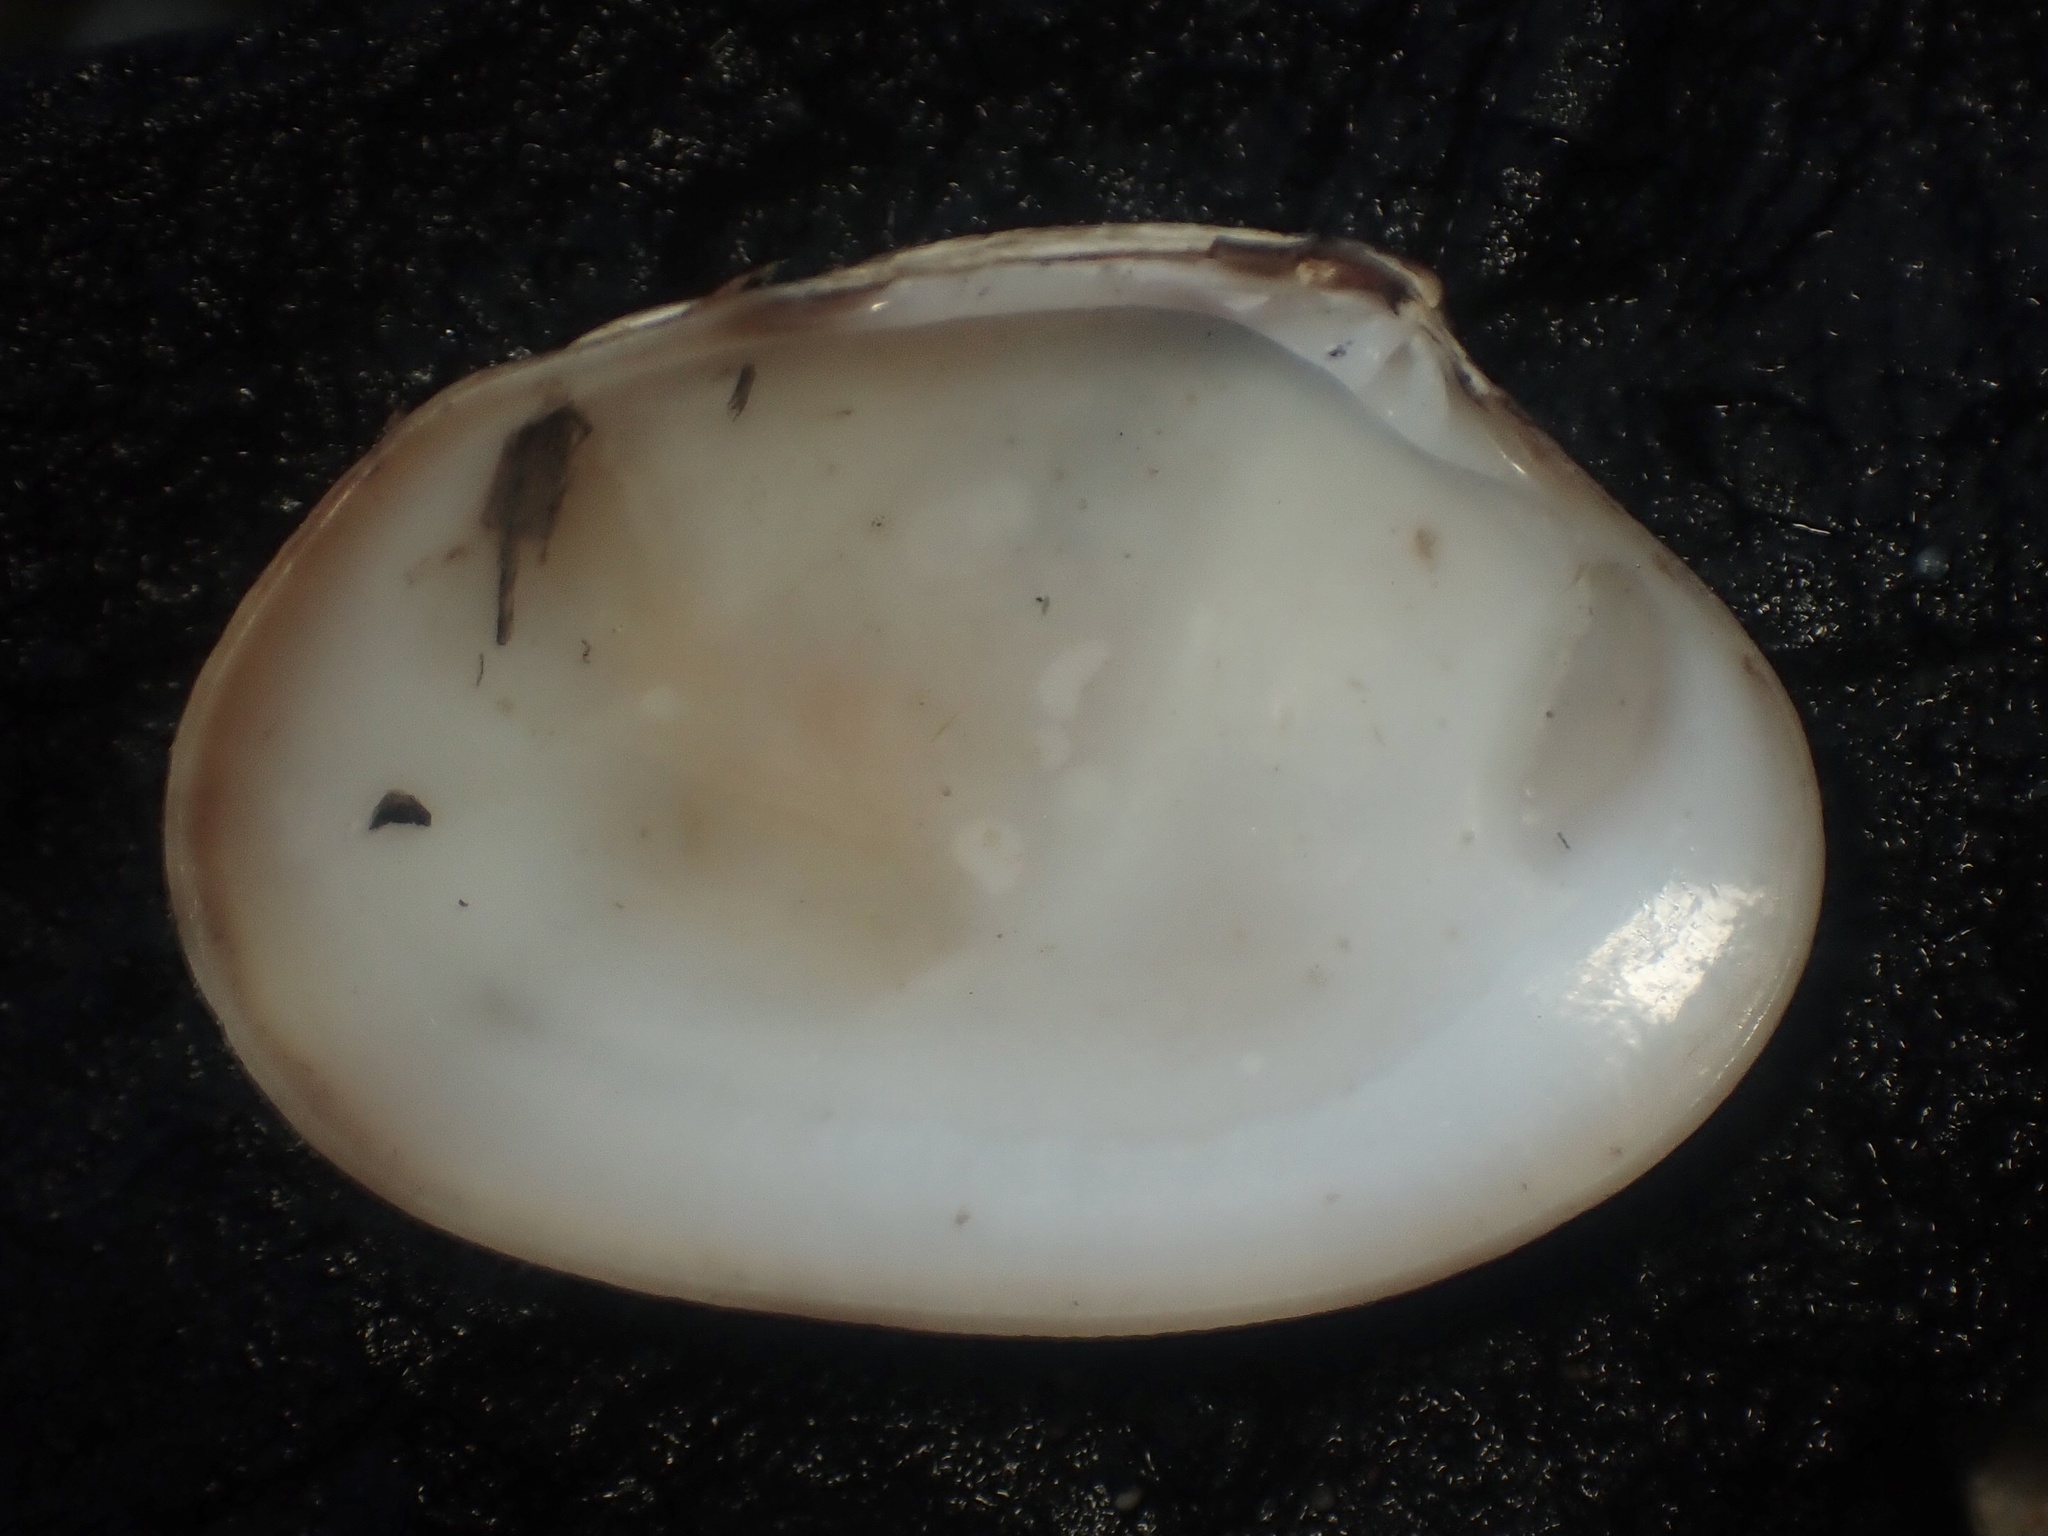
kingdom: Animalia
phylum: Mollusca
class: Bivalvia
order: Venerida
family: Veneridae
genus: Ruditapes
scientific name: Ruditapes philippinarum
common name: Manila clam
